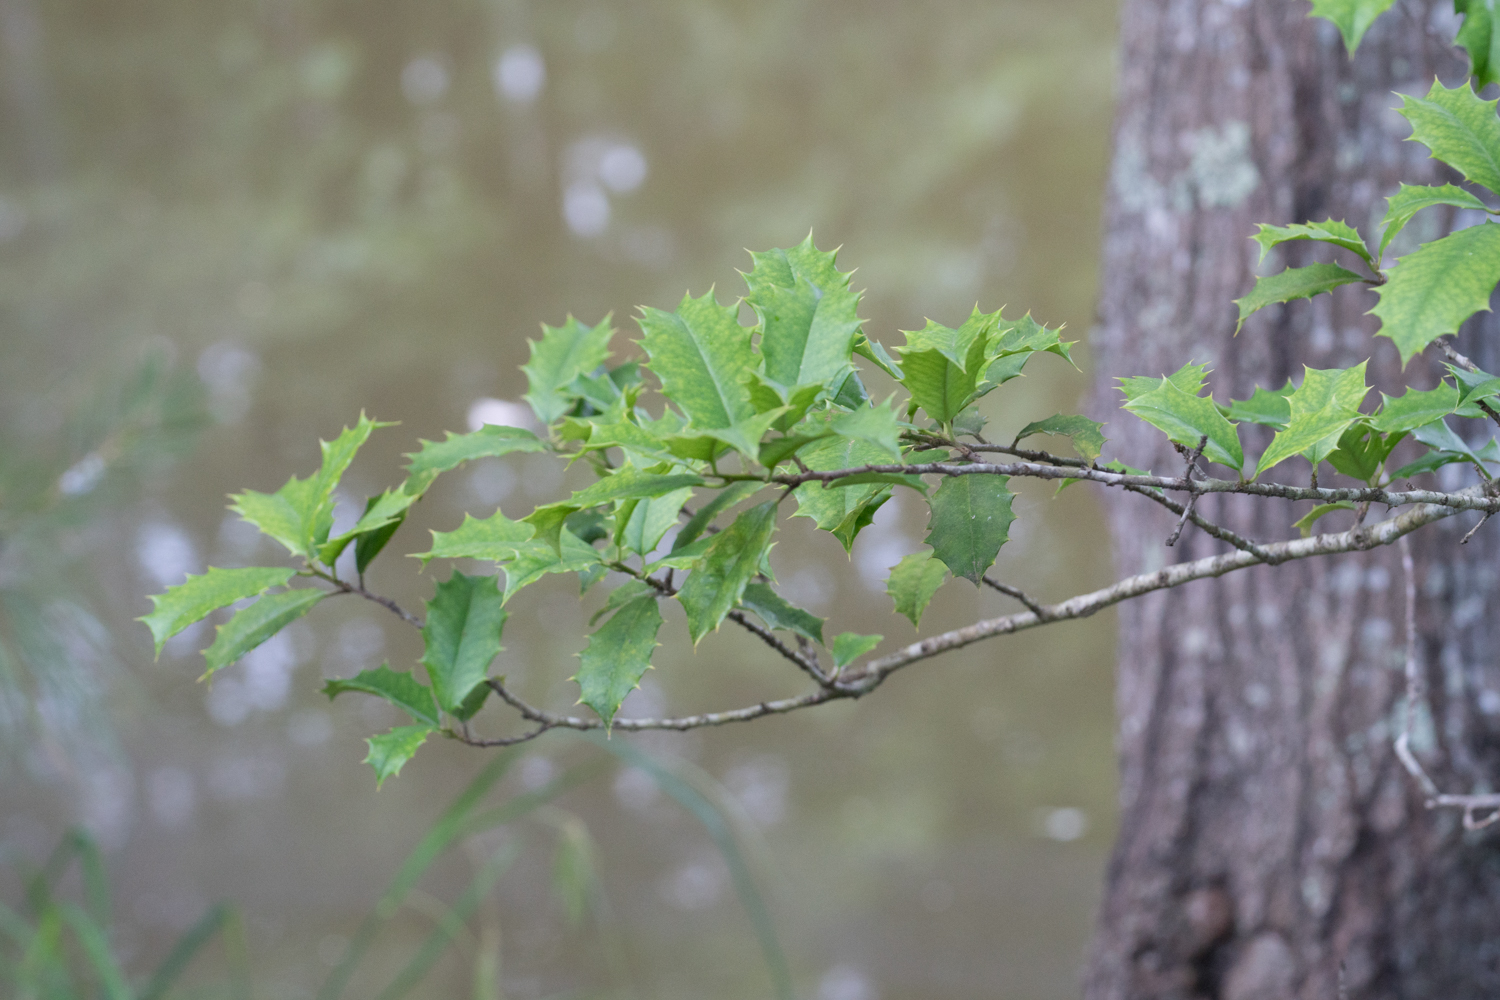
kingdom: Plantae
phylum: Tracheophyta
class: Magnoliopsida
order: Aquifoliales
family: Aquifoliaceae
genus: Ilex
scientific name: Ilex opaca
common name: American holly
